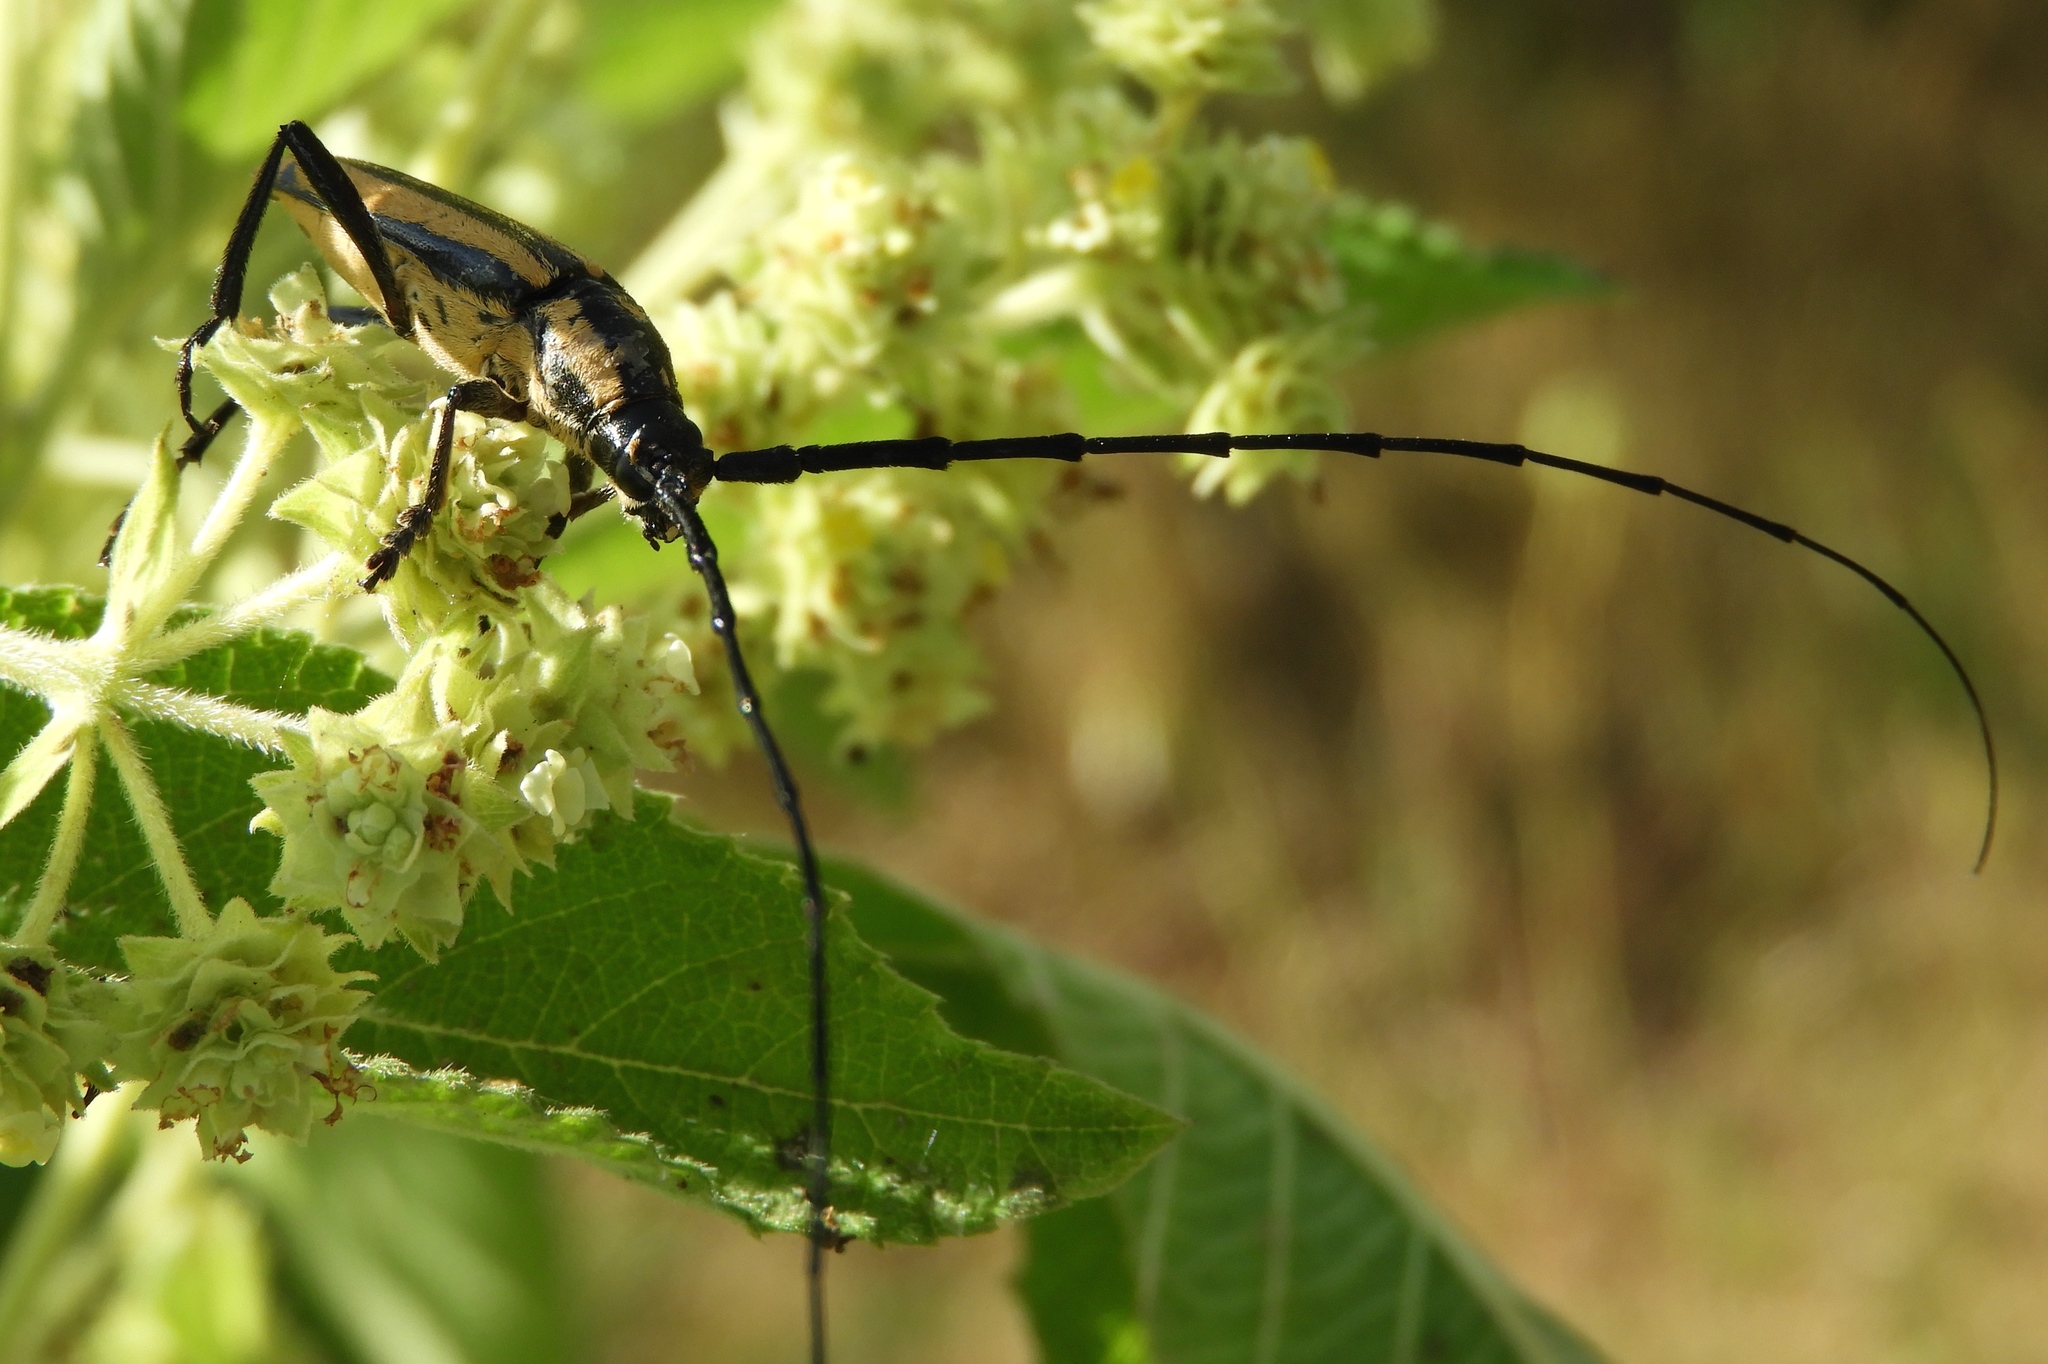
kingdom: Animalia
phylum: Arthropoda
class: Insecta
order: Coleoptera
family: Cerambycidae
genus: Sphaenothecus
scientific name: Sphaenothecus trilineatus
